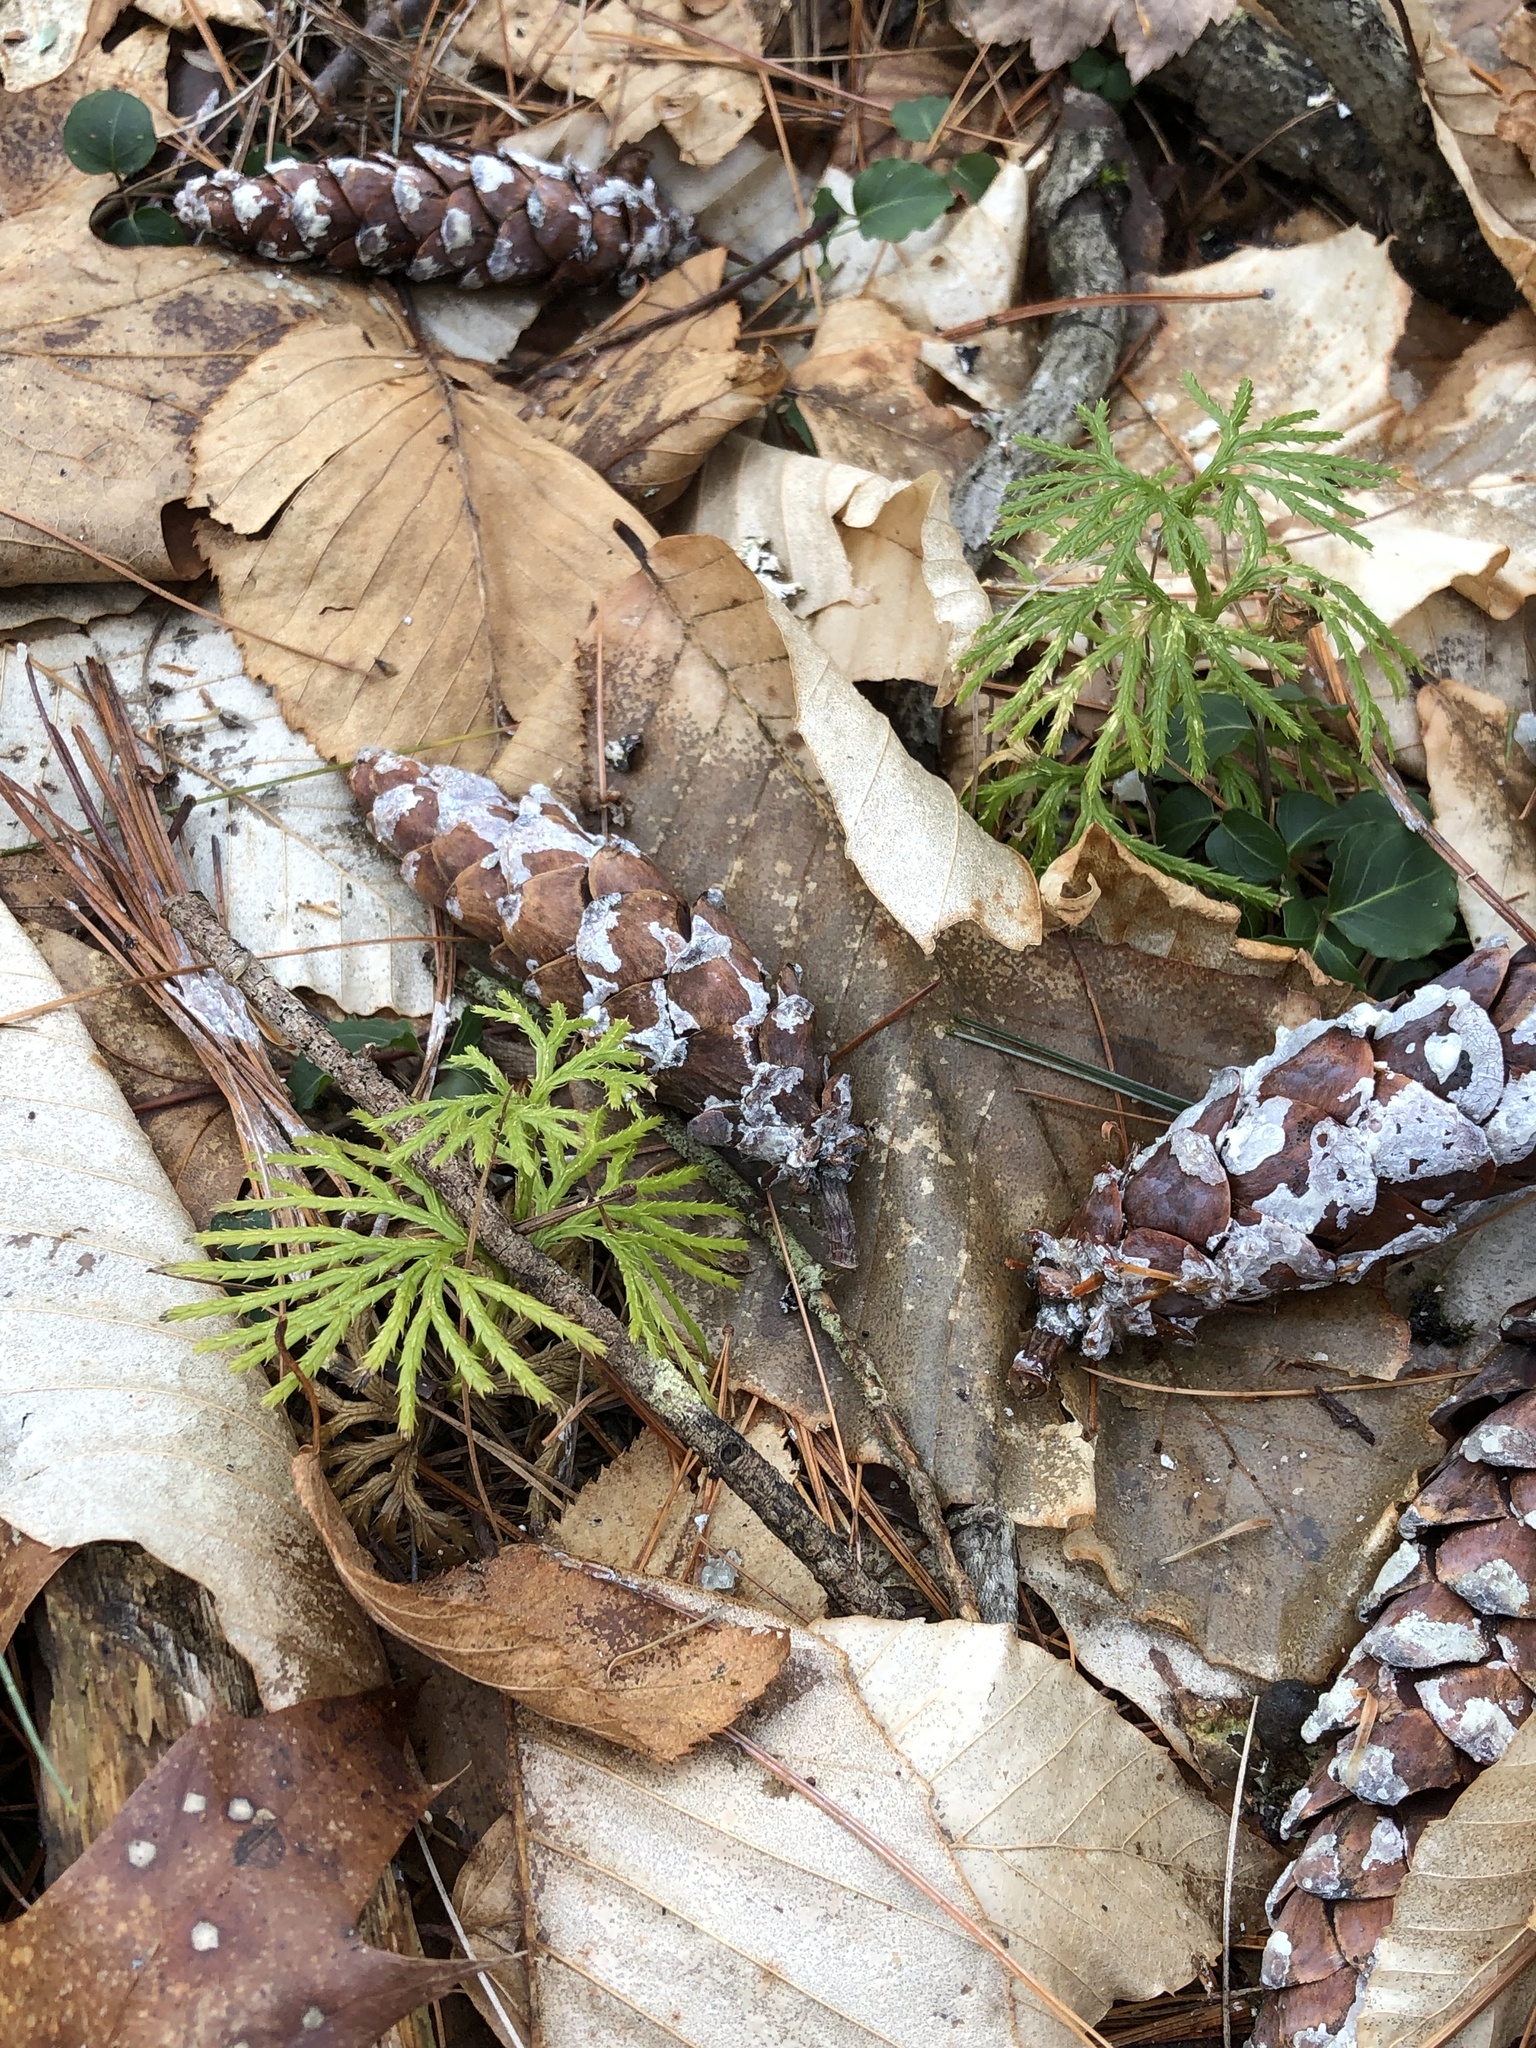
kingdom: Plantae
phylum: Tracheophyta
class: Lycopodiopsida
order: Lycopodiales
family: Lycopodiaceae
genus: Diphasiastrum
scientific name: Diphasiastrum digitatum
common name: Southern running-pine
